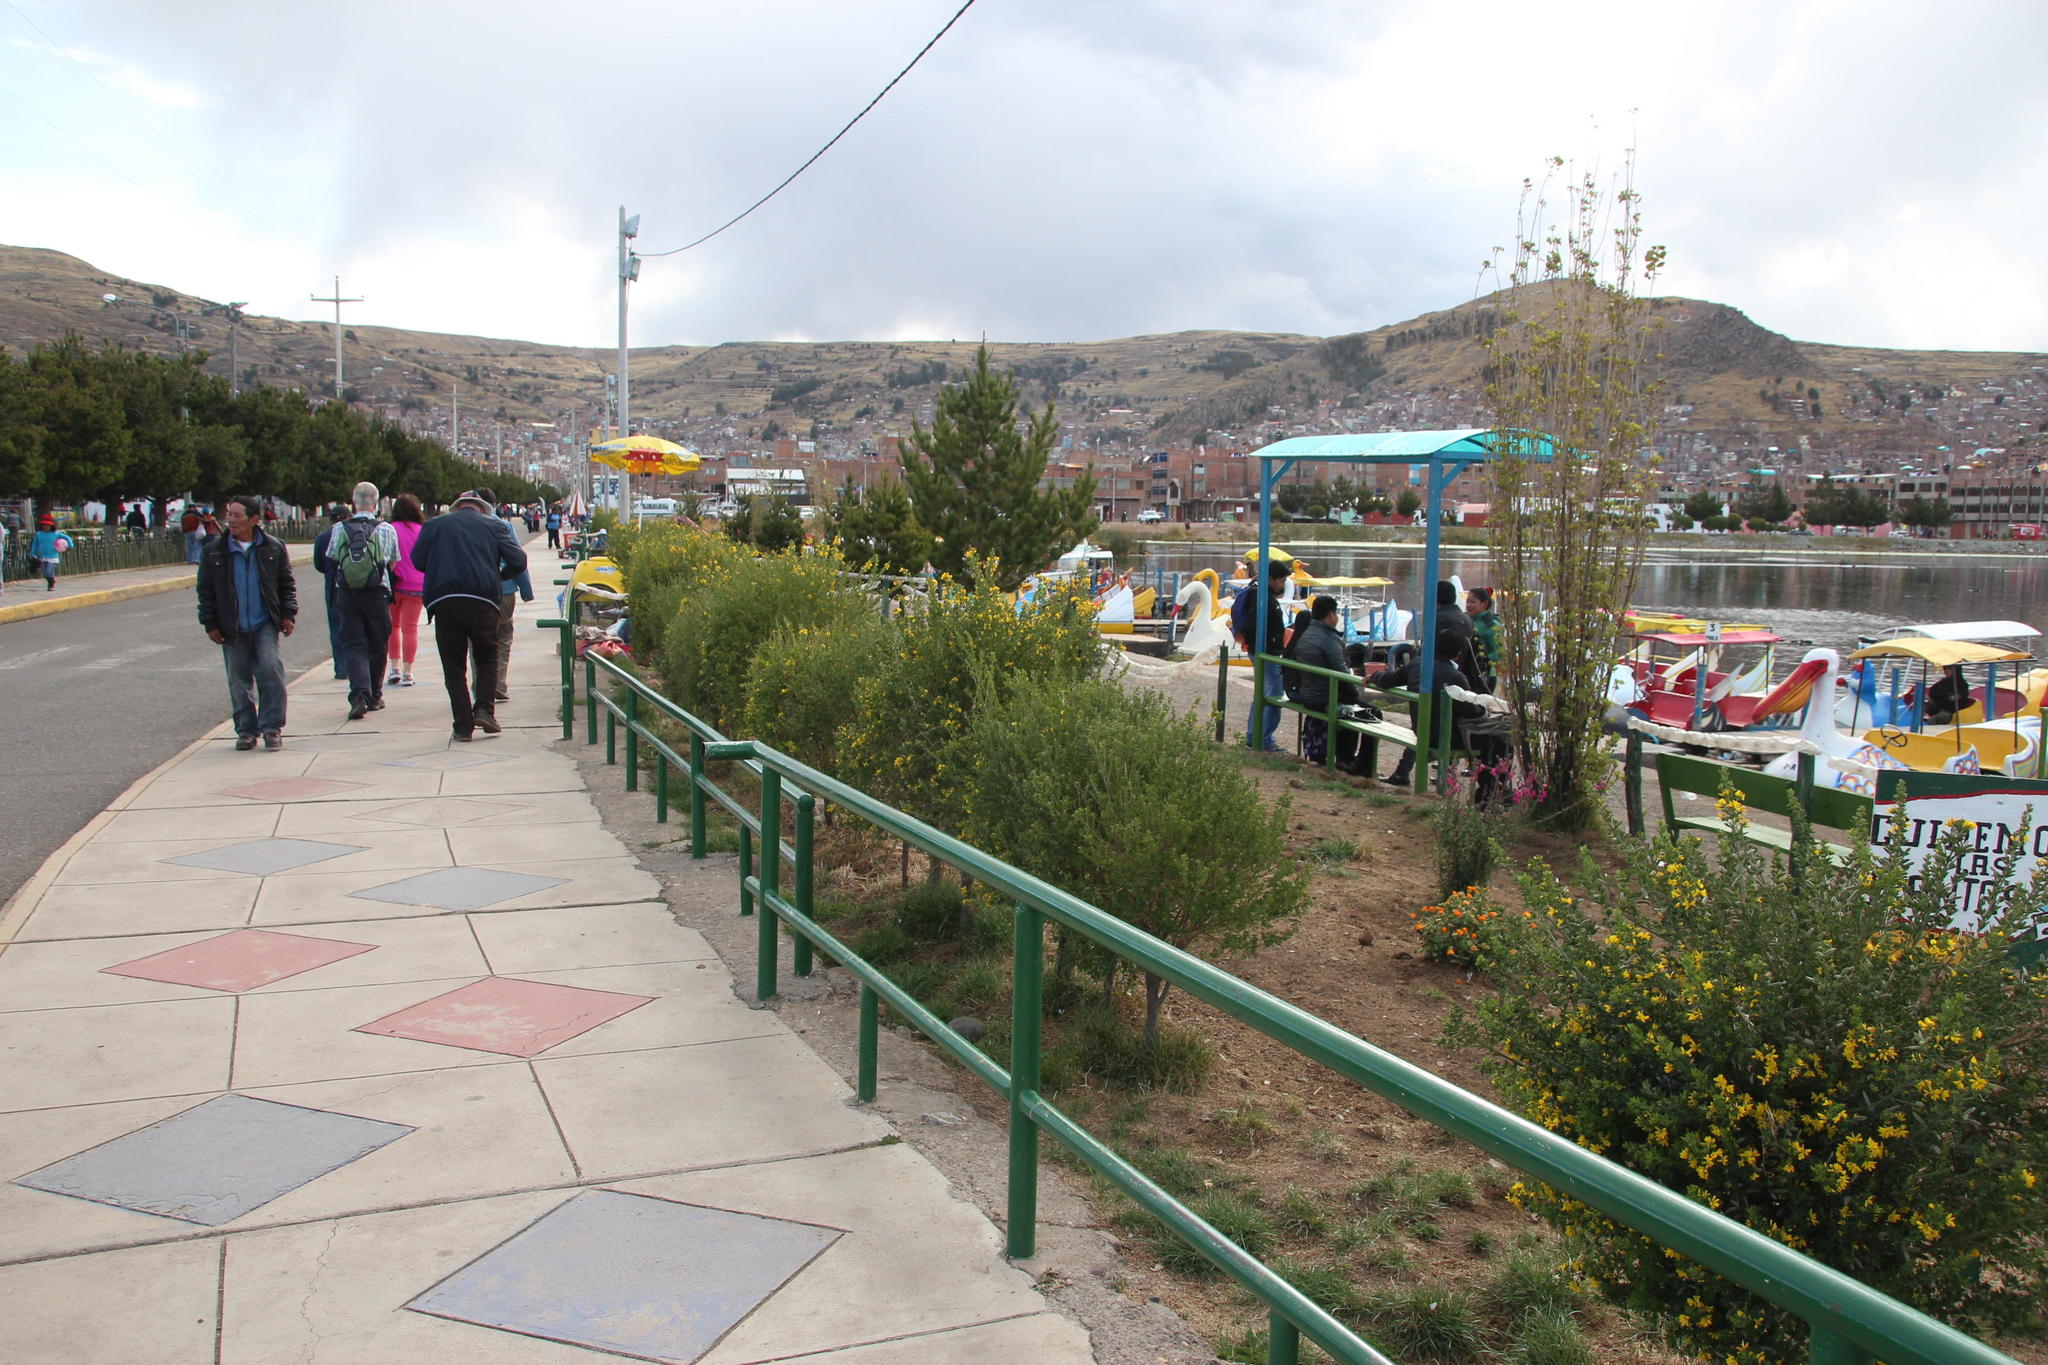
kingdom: Plantae
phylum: Tracheophyta
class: Magnoliopsida
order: Fabales
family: Fabaceae
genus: Genista
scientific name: Genista monspessulana
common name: Montpellier broom
